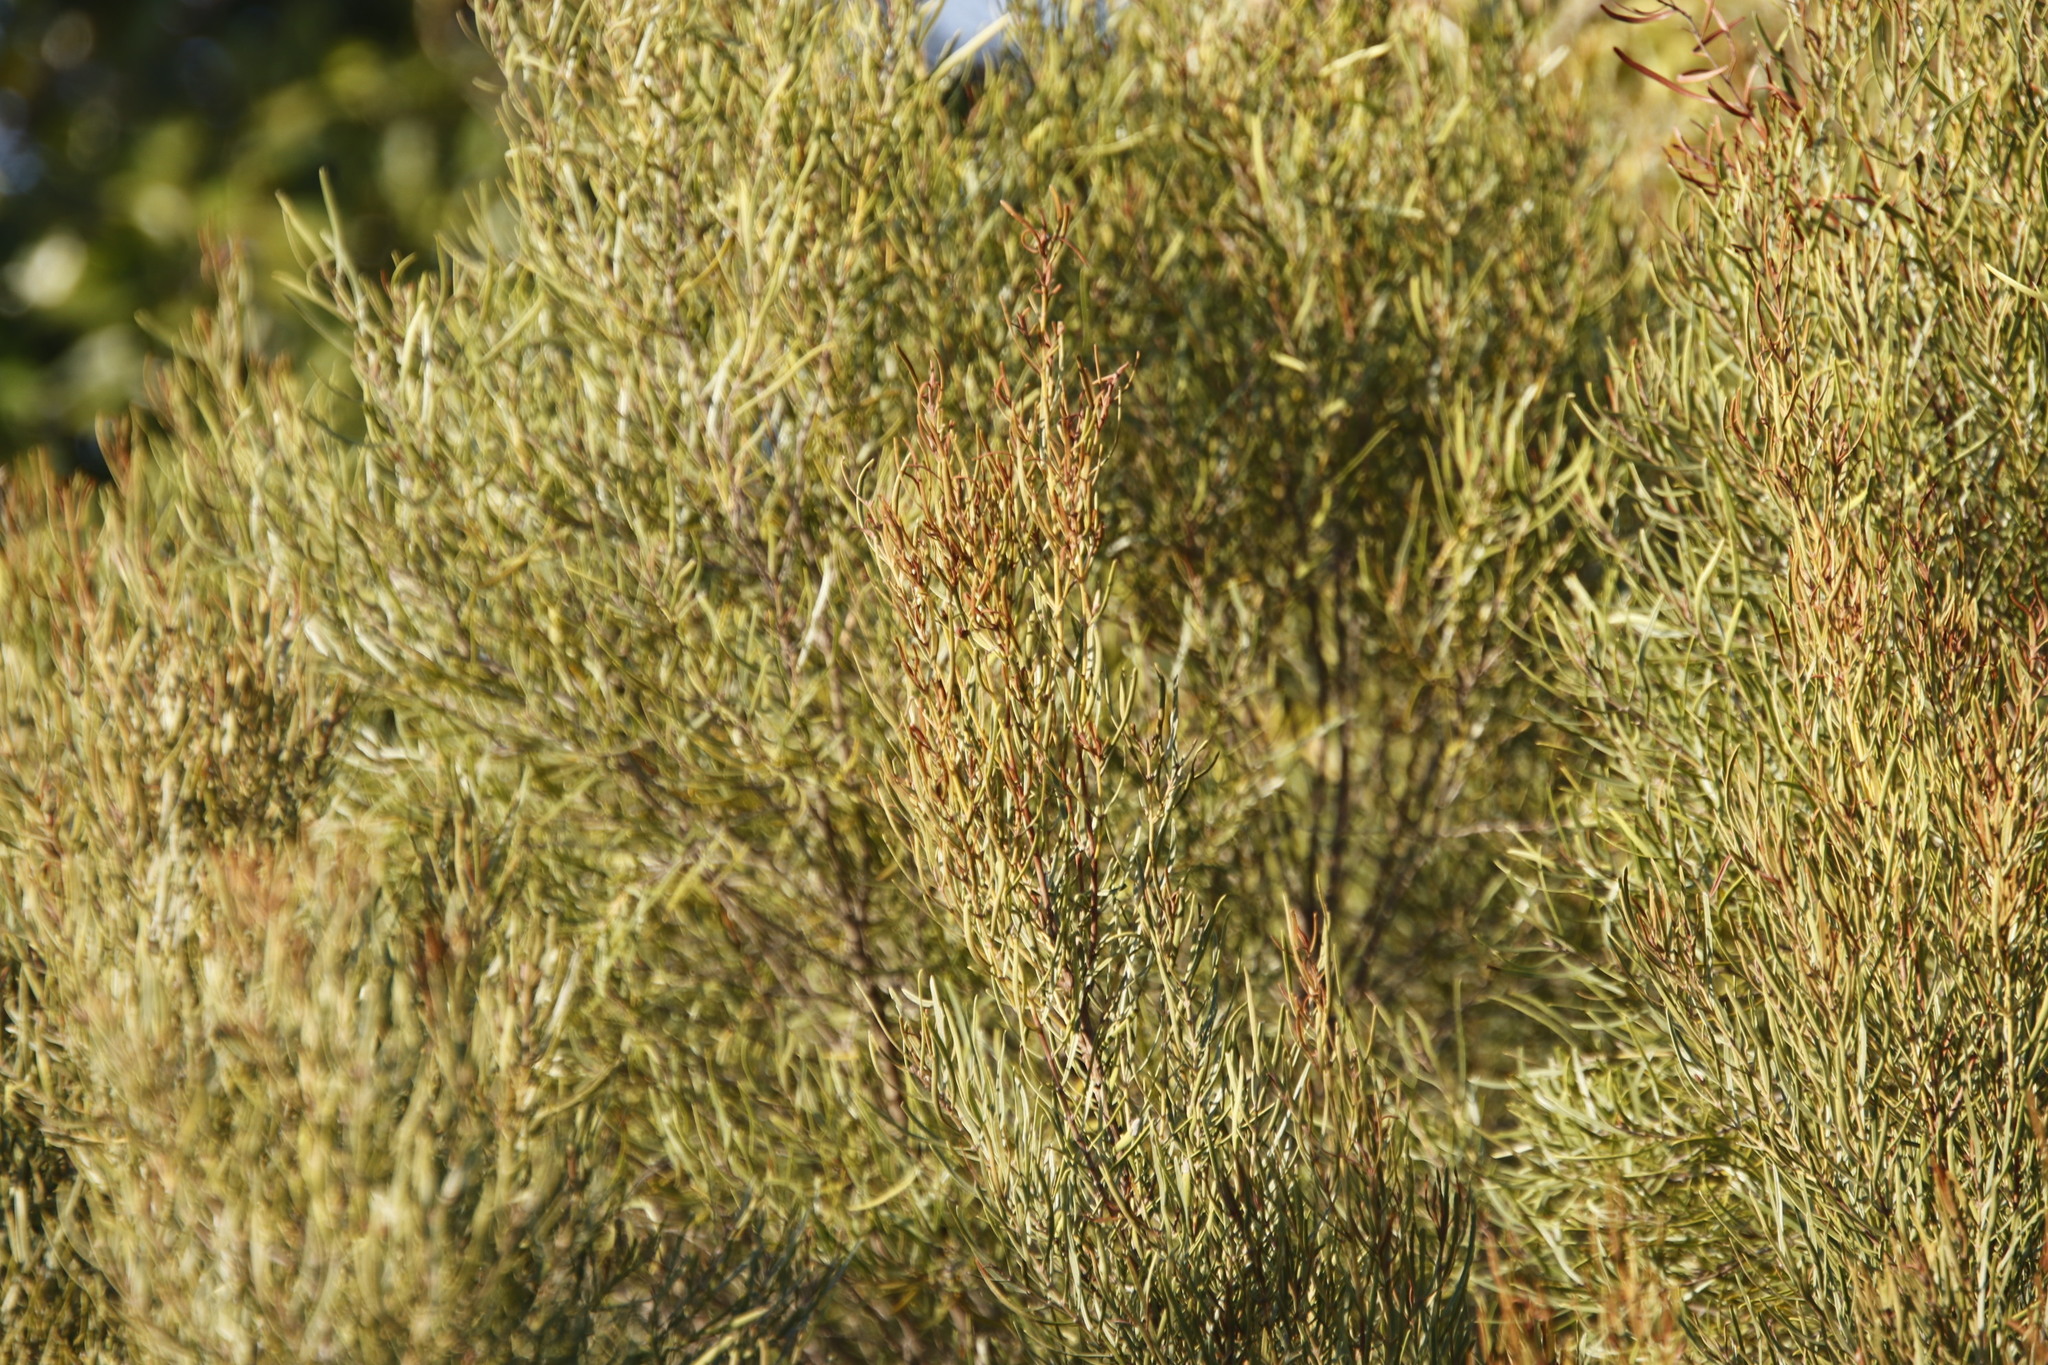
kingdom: Plantae
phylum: Tracheophyta
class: Magnoliopsida
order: Ericales
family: Ebenaceae
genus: Euclea
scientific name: Euclea linearis
